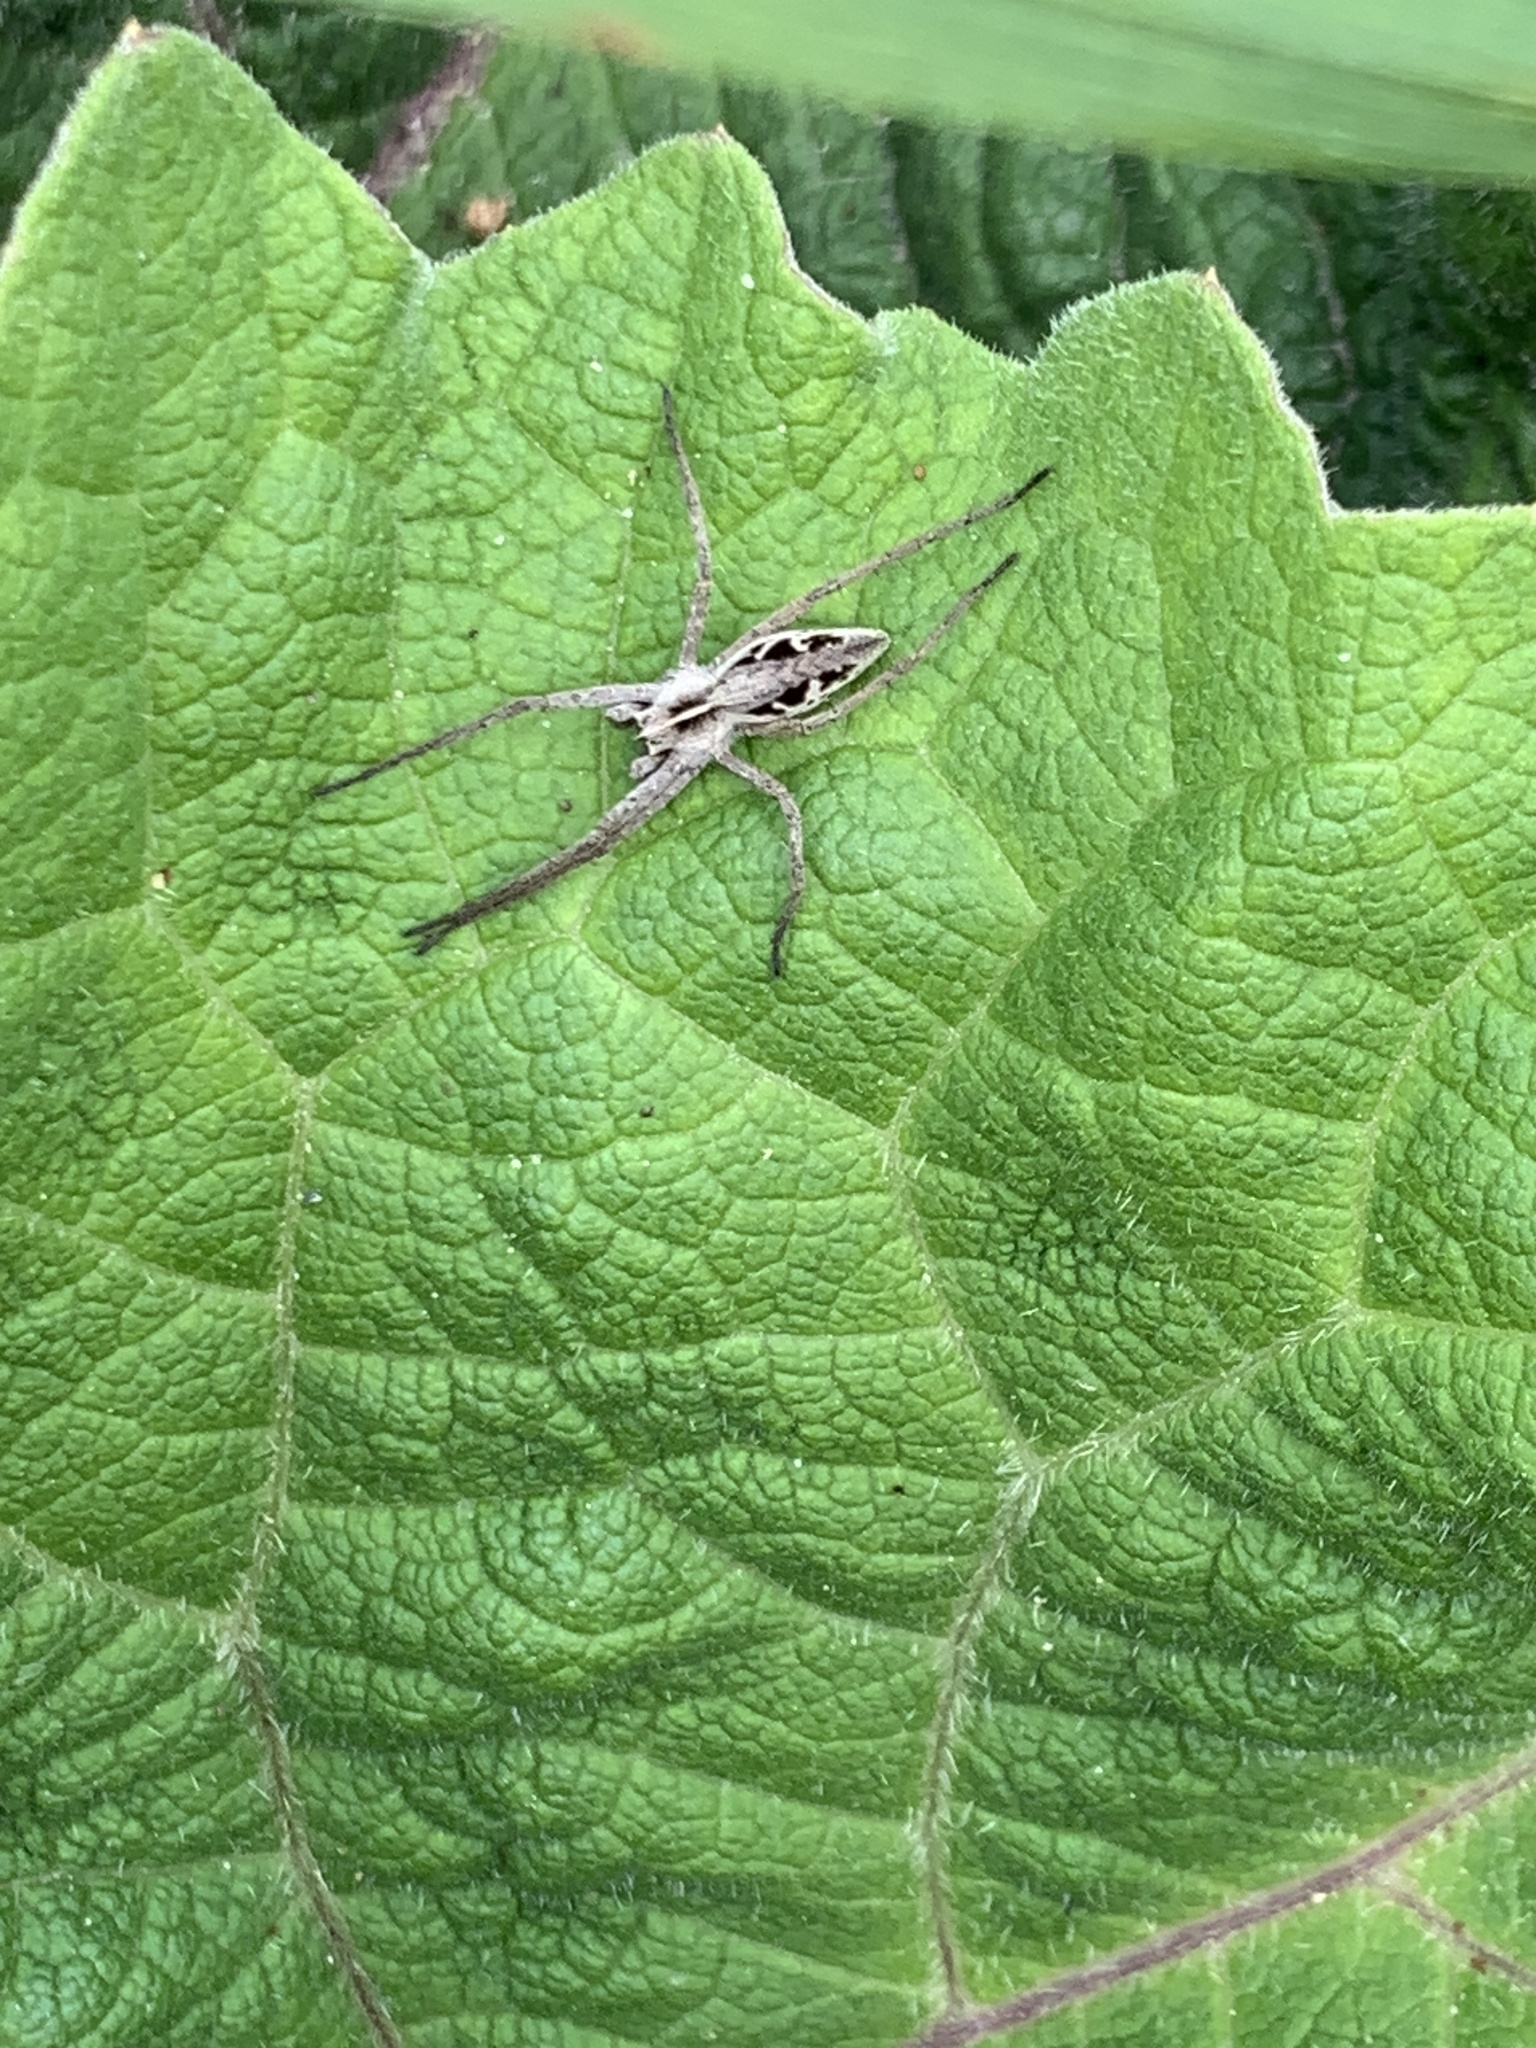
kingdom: Animalia
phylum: Arthropoda
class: Arachnida
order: Araneae
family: Pisauridae
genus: Pisaura
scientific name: Pisaura mirabilis
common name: Tent spider
